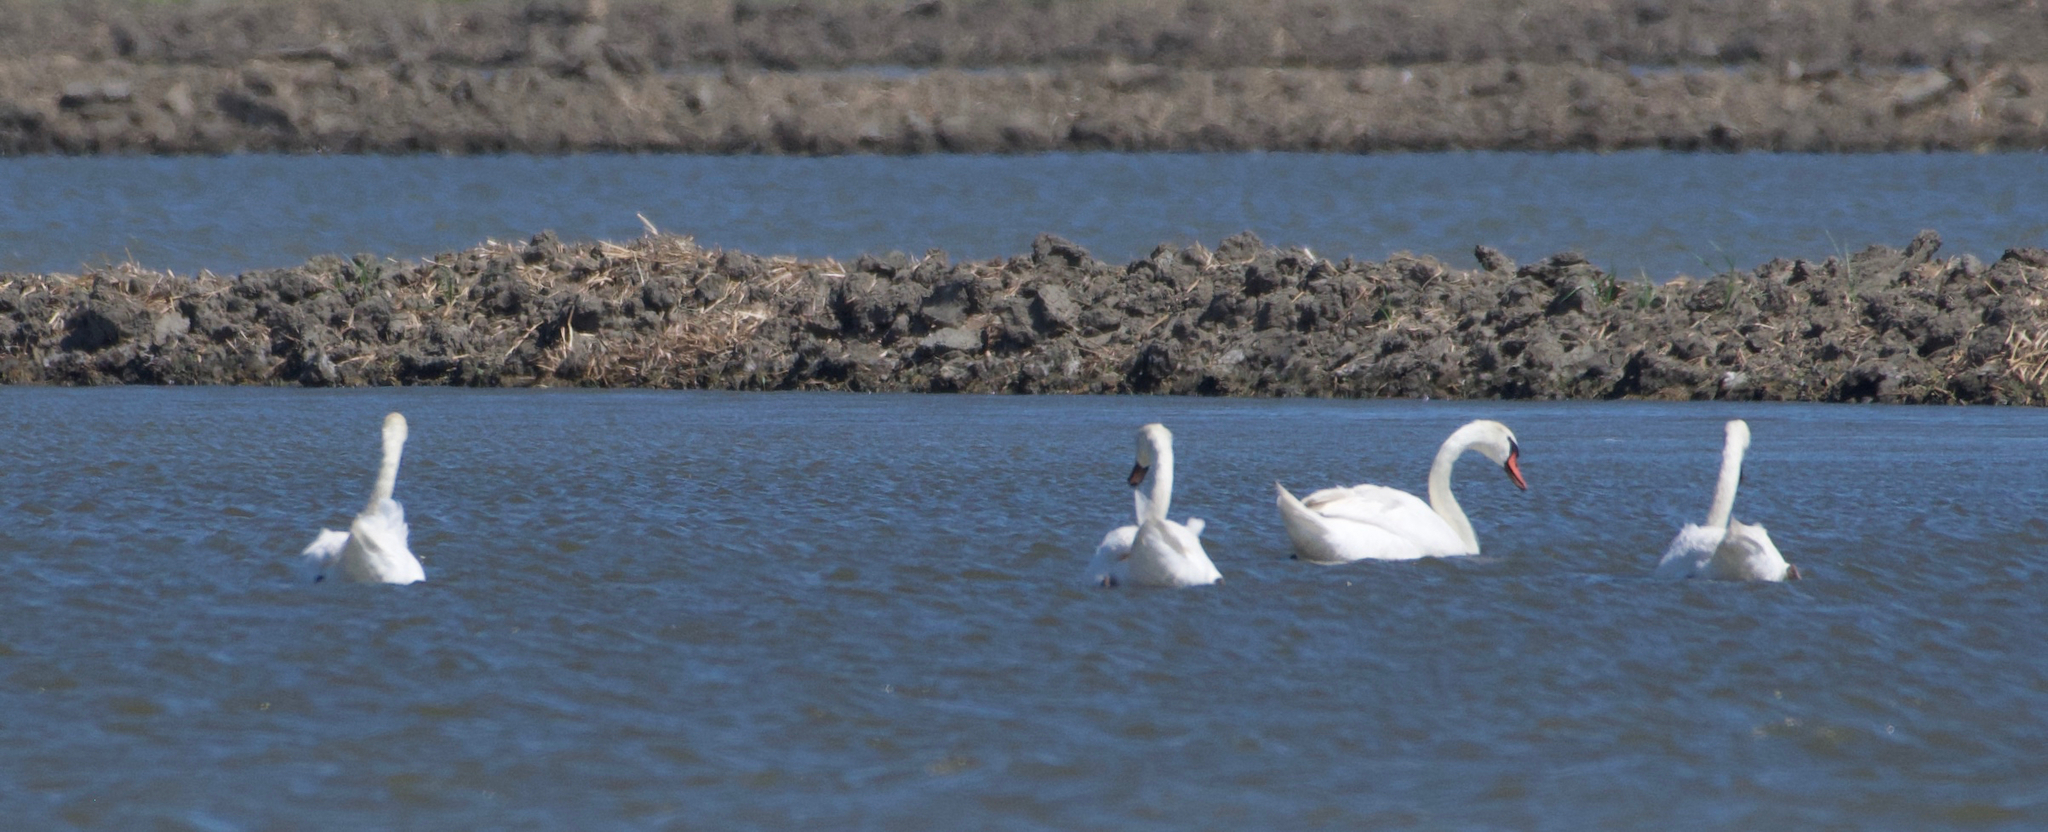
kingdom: Animalia
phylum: Chordata
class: Aves
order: Anseriformes
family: Anatidae
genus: Cygnus
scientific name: Cygnus olor
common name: Mute swan
